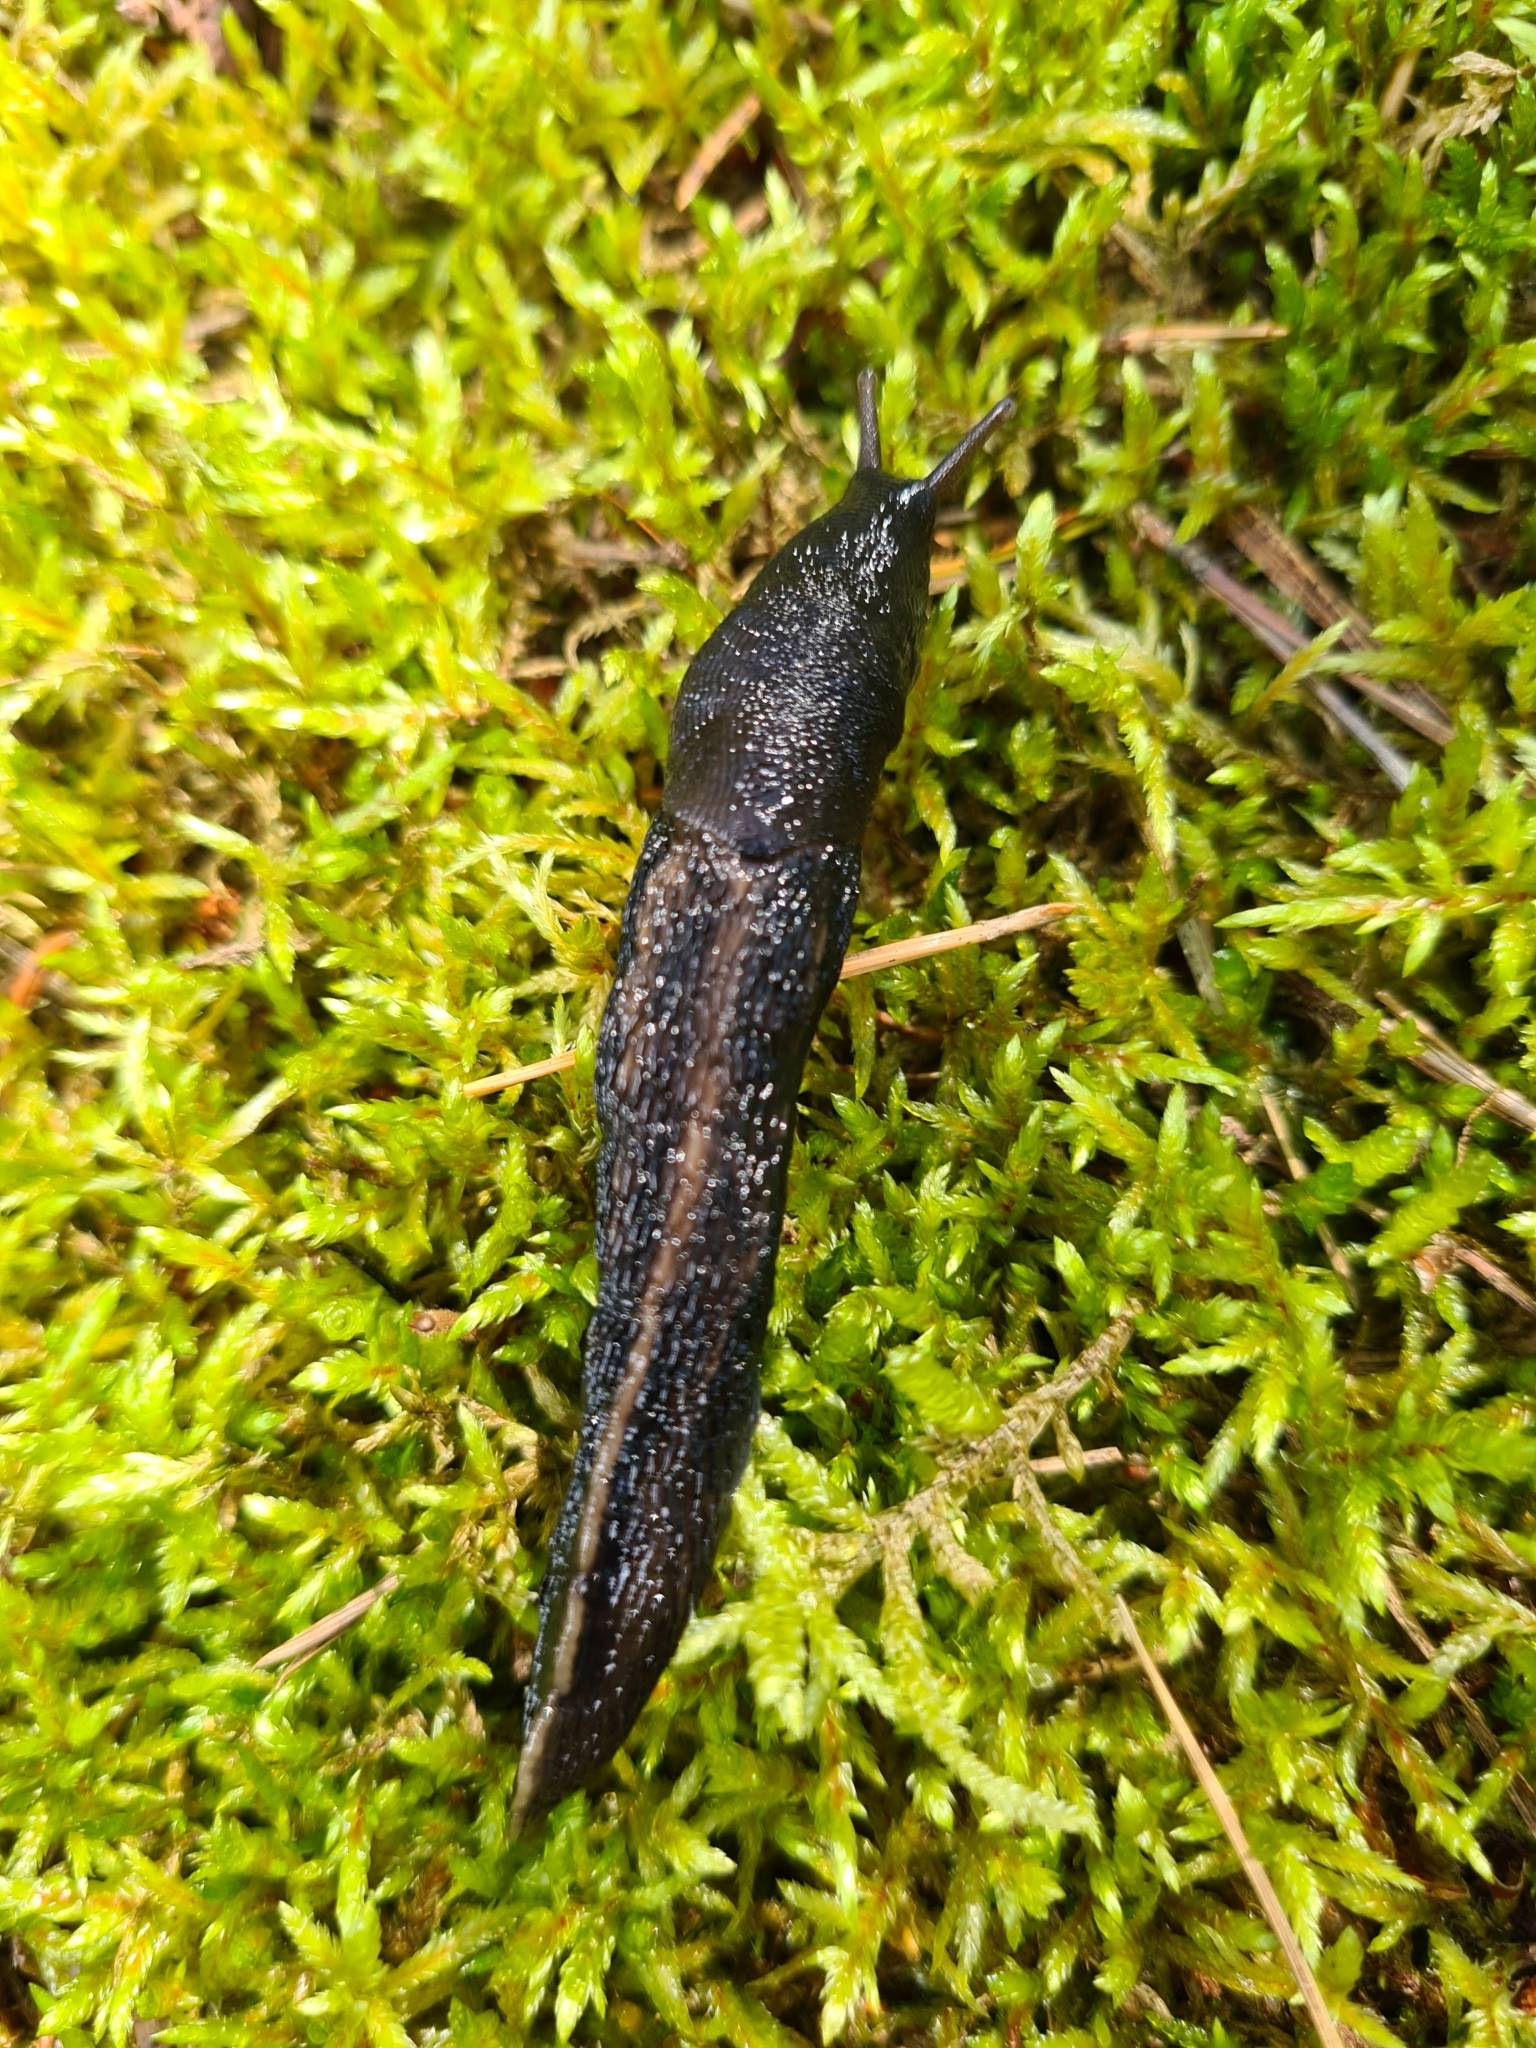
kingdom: Animalia
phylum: Mollusca
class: Gastropoda
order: Stylommatophora
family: Limacidae
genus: Limax
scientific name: Limax cinereoniger
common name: Ash-black slug
